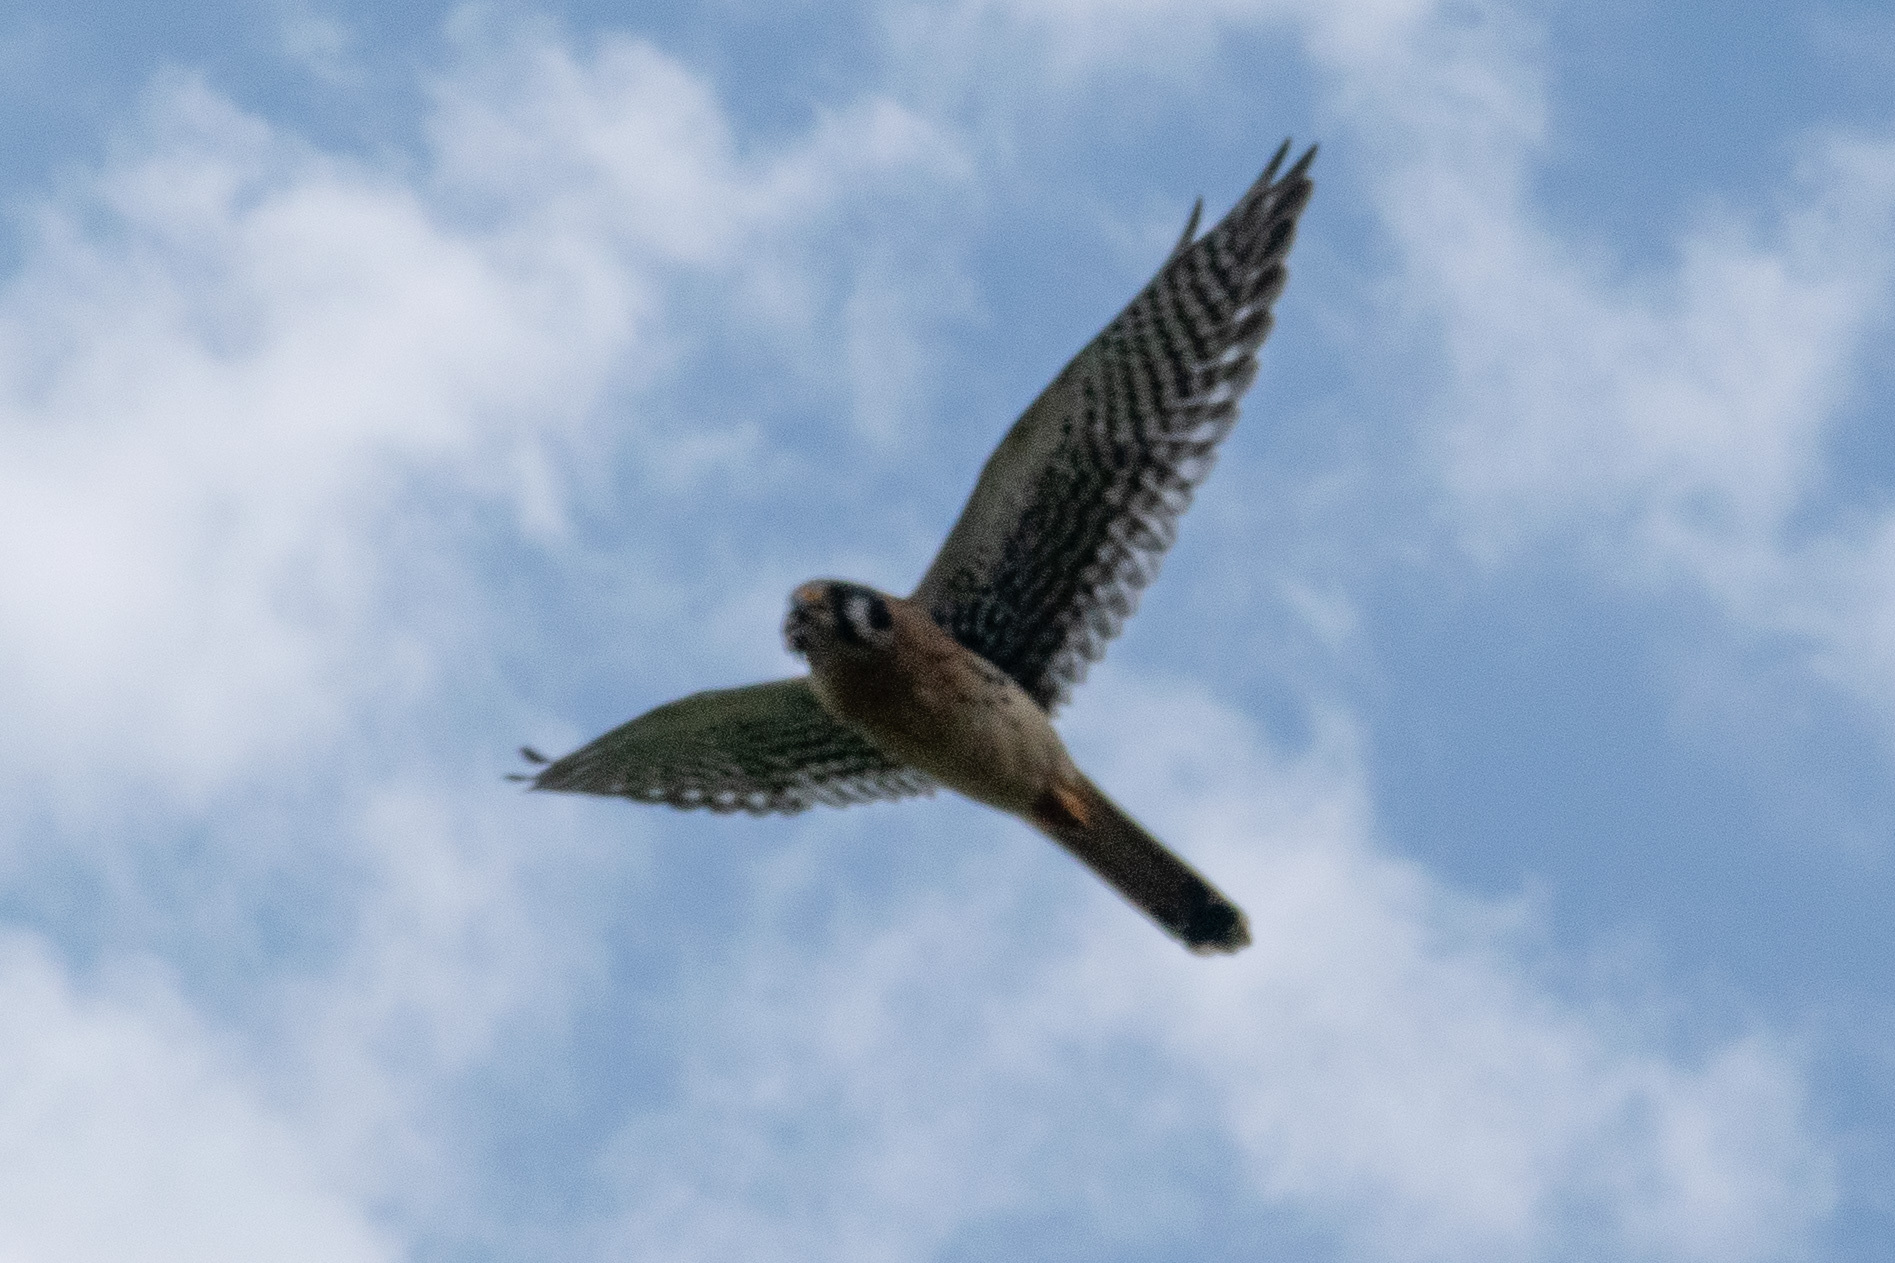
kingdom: Animalia
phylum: Chordata
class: Aves
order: Falconiformes
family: Falconidae
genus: Falco
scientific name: Falco sparverius
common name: American kestrel
